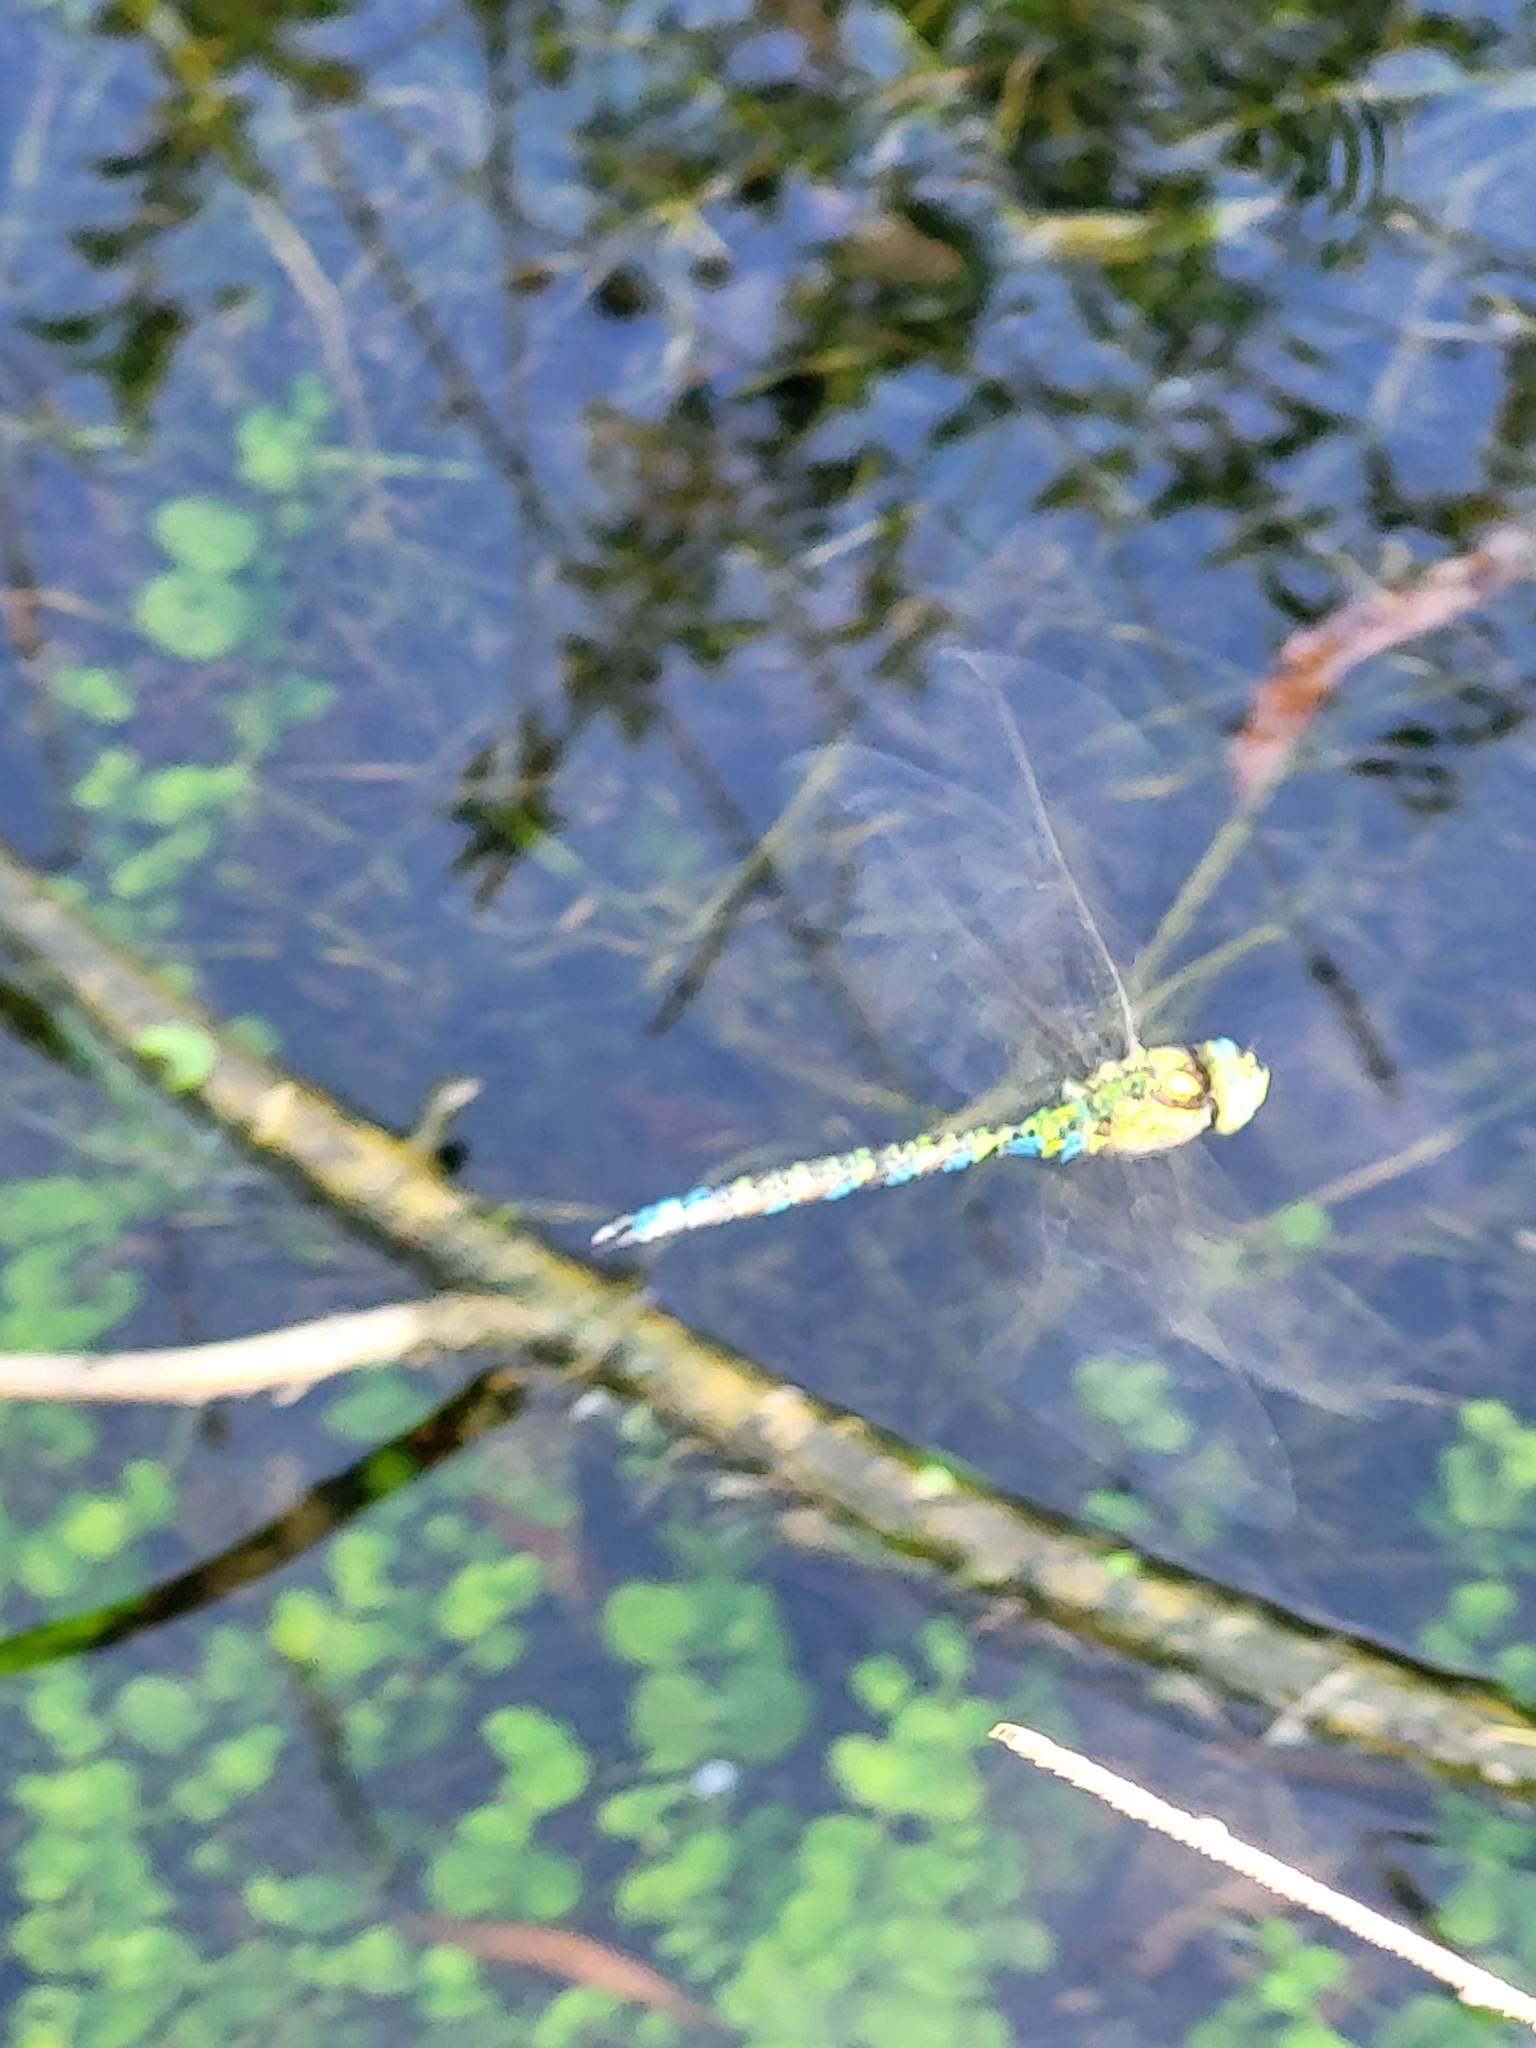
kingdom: Animalia
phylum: Arthropoda
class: Insecta
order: Odonata
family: Aeshnidae
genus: Aeshna
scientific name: Aeshna cyanea
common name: Southern hawker
